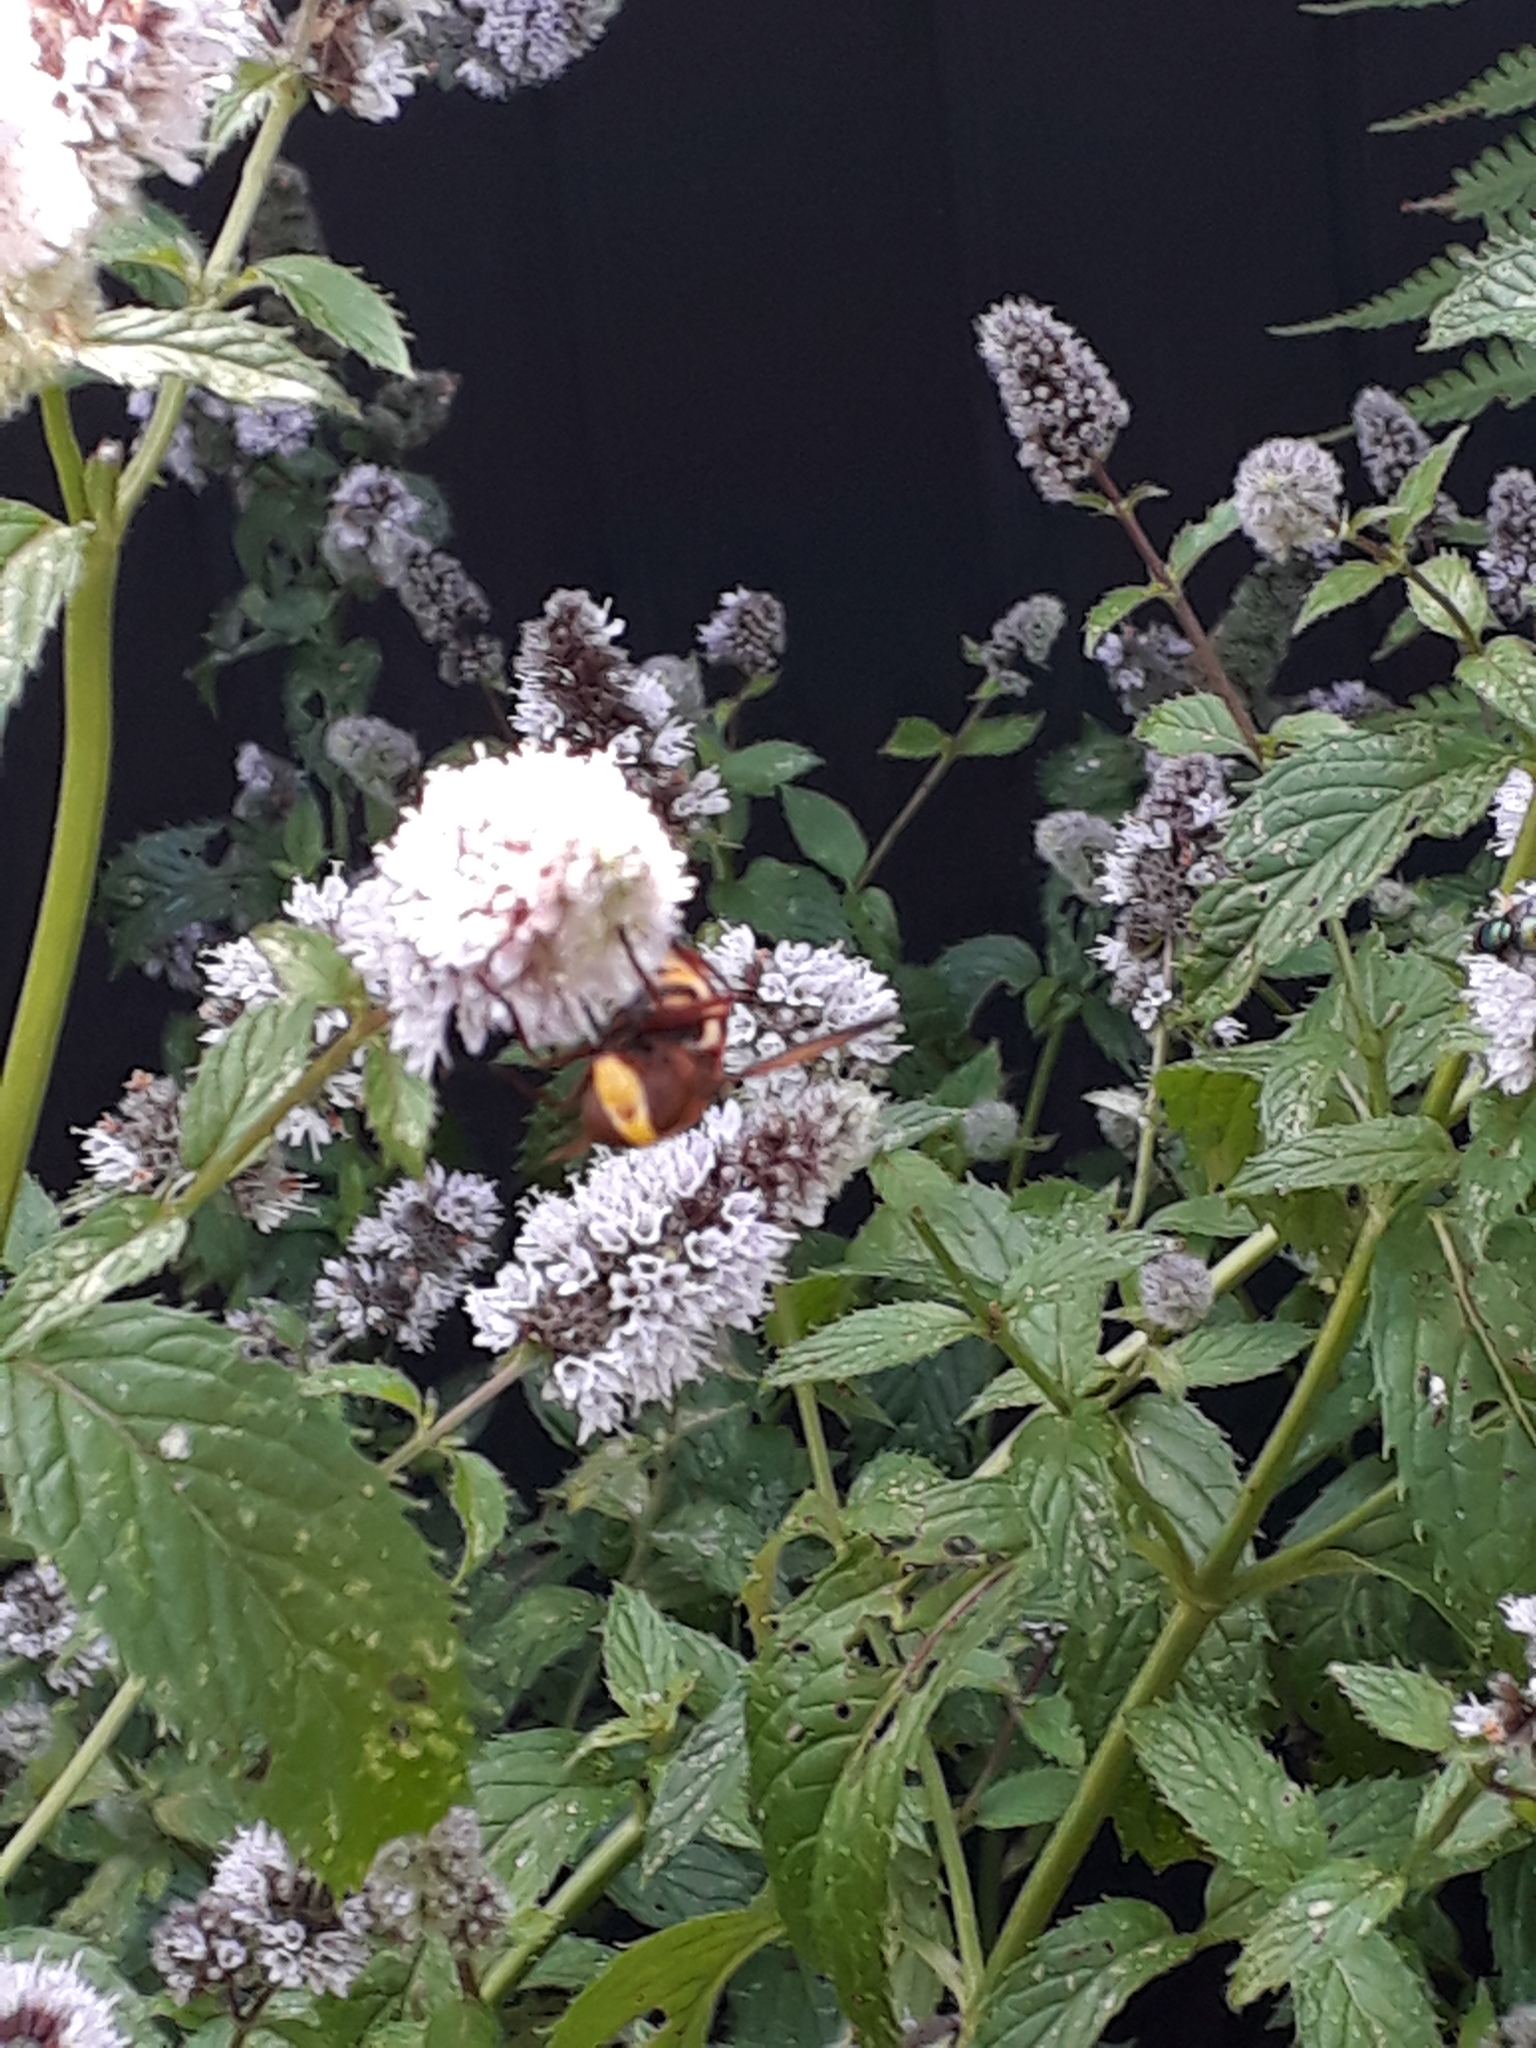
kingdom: Animalia
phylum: Arthropoda
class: Insecta
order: Diptera
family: Syrphidae
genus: Volucella
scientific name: Volucella zonaria
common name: Hornet hoverfly
